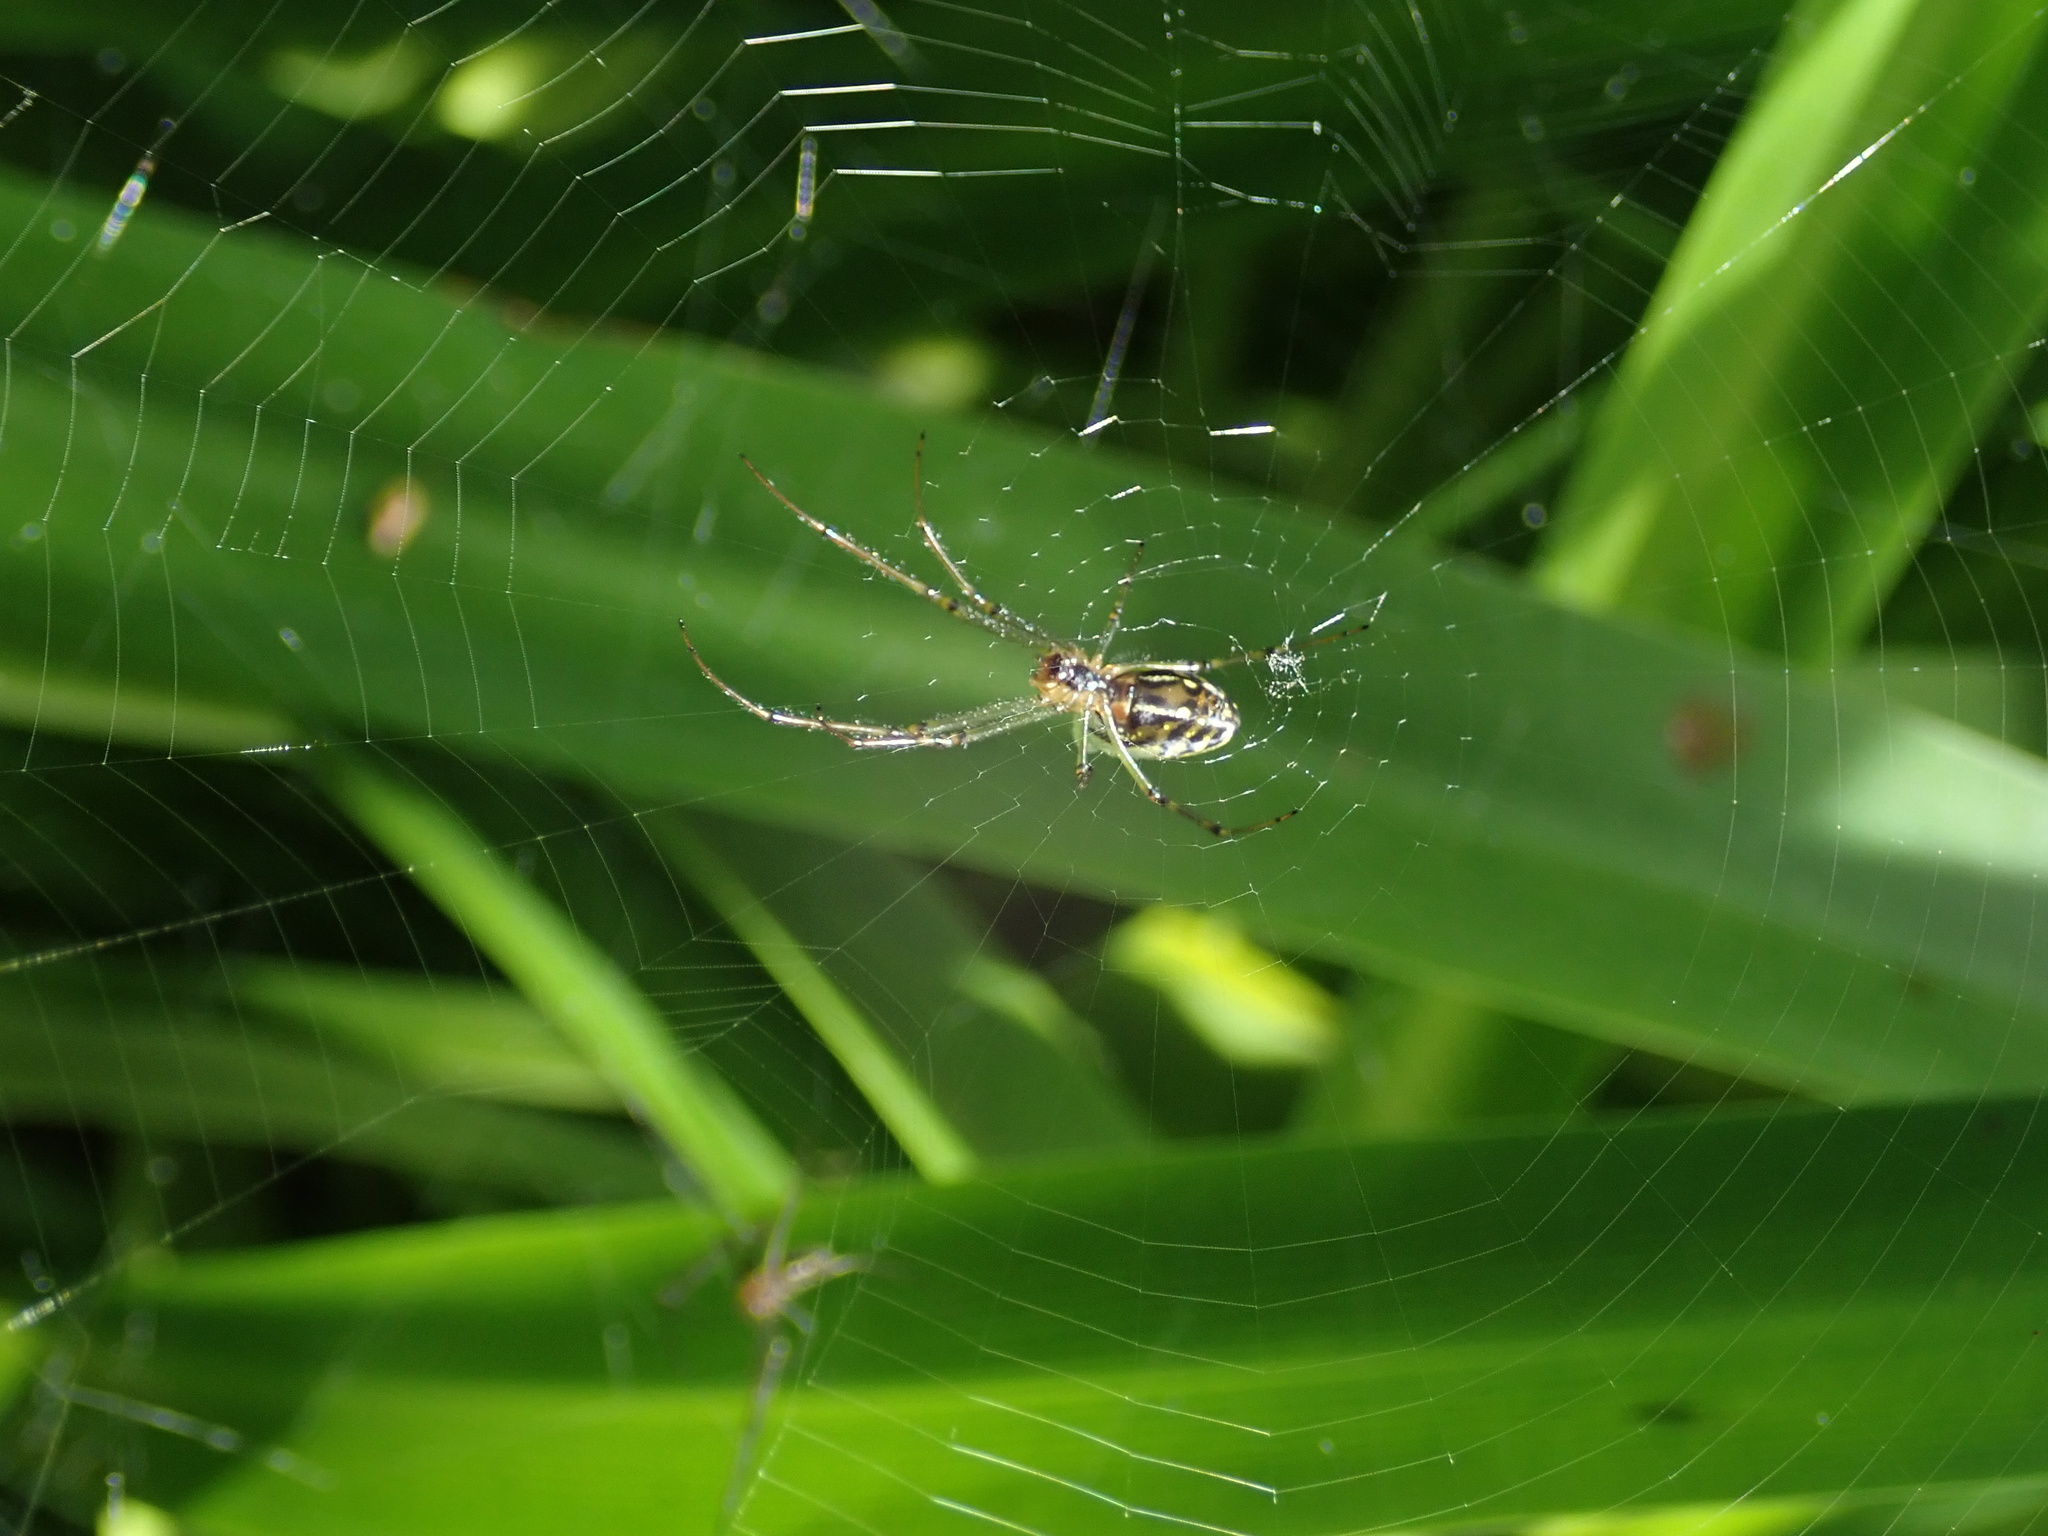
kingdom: Animalia
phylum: Arthropoda
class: Arachnida
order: Araneae
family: Tetragnathidae
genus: Leucauge
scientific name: Leucauge dromedaria
